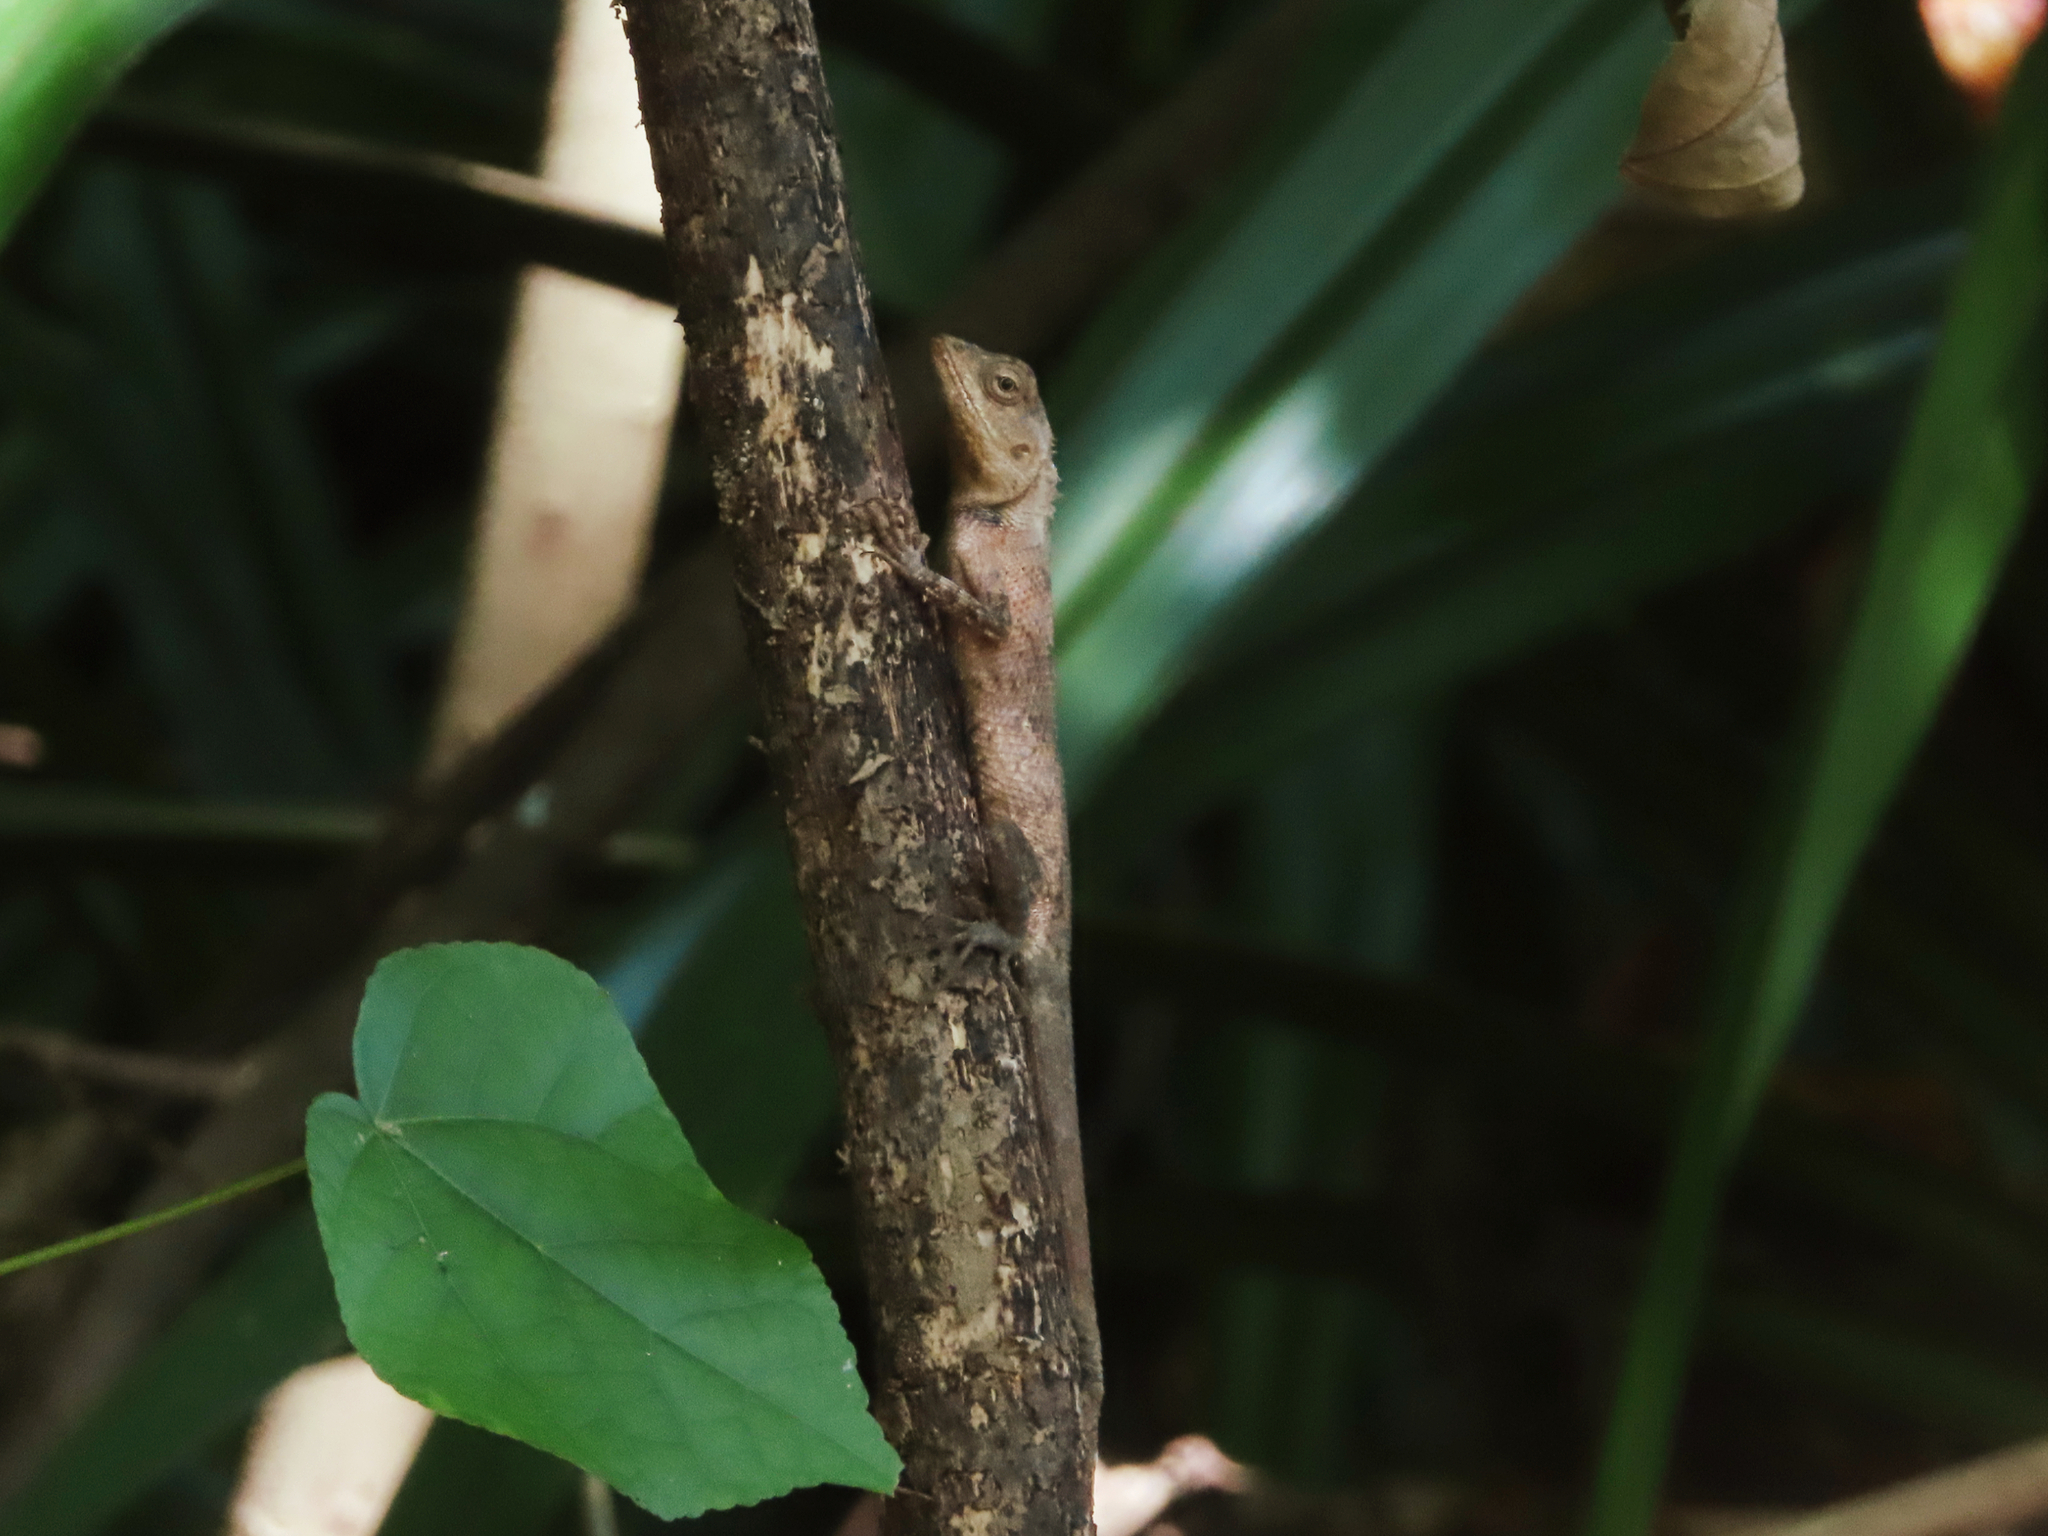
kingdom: Animalia
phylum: Chordata
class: Squamata
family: Agamidae
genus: Calotes
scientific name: Calotes versicolor
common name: Oriental garden lizard
